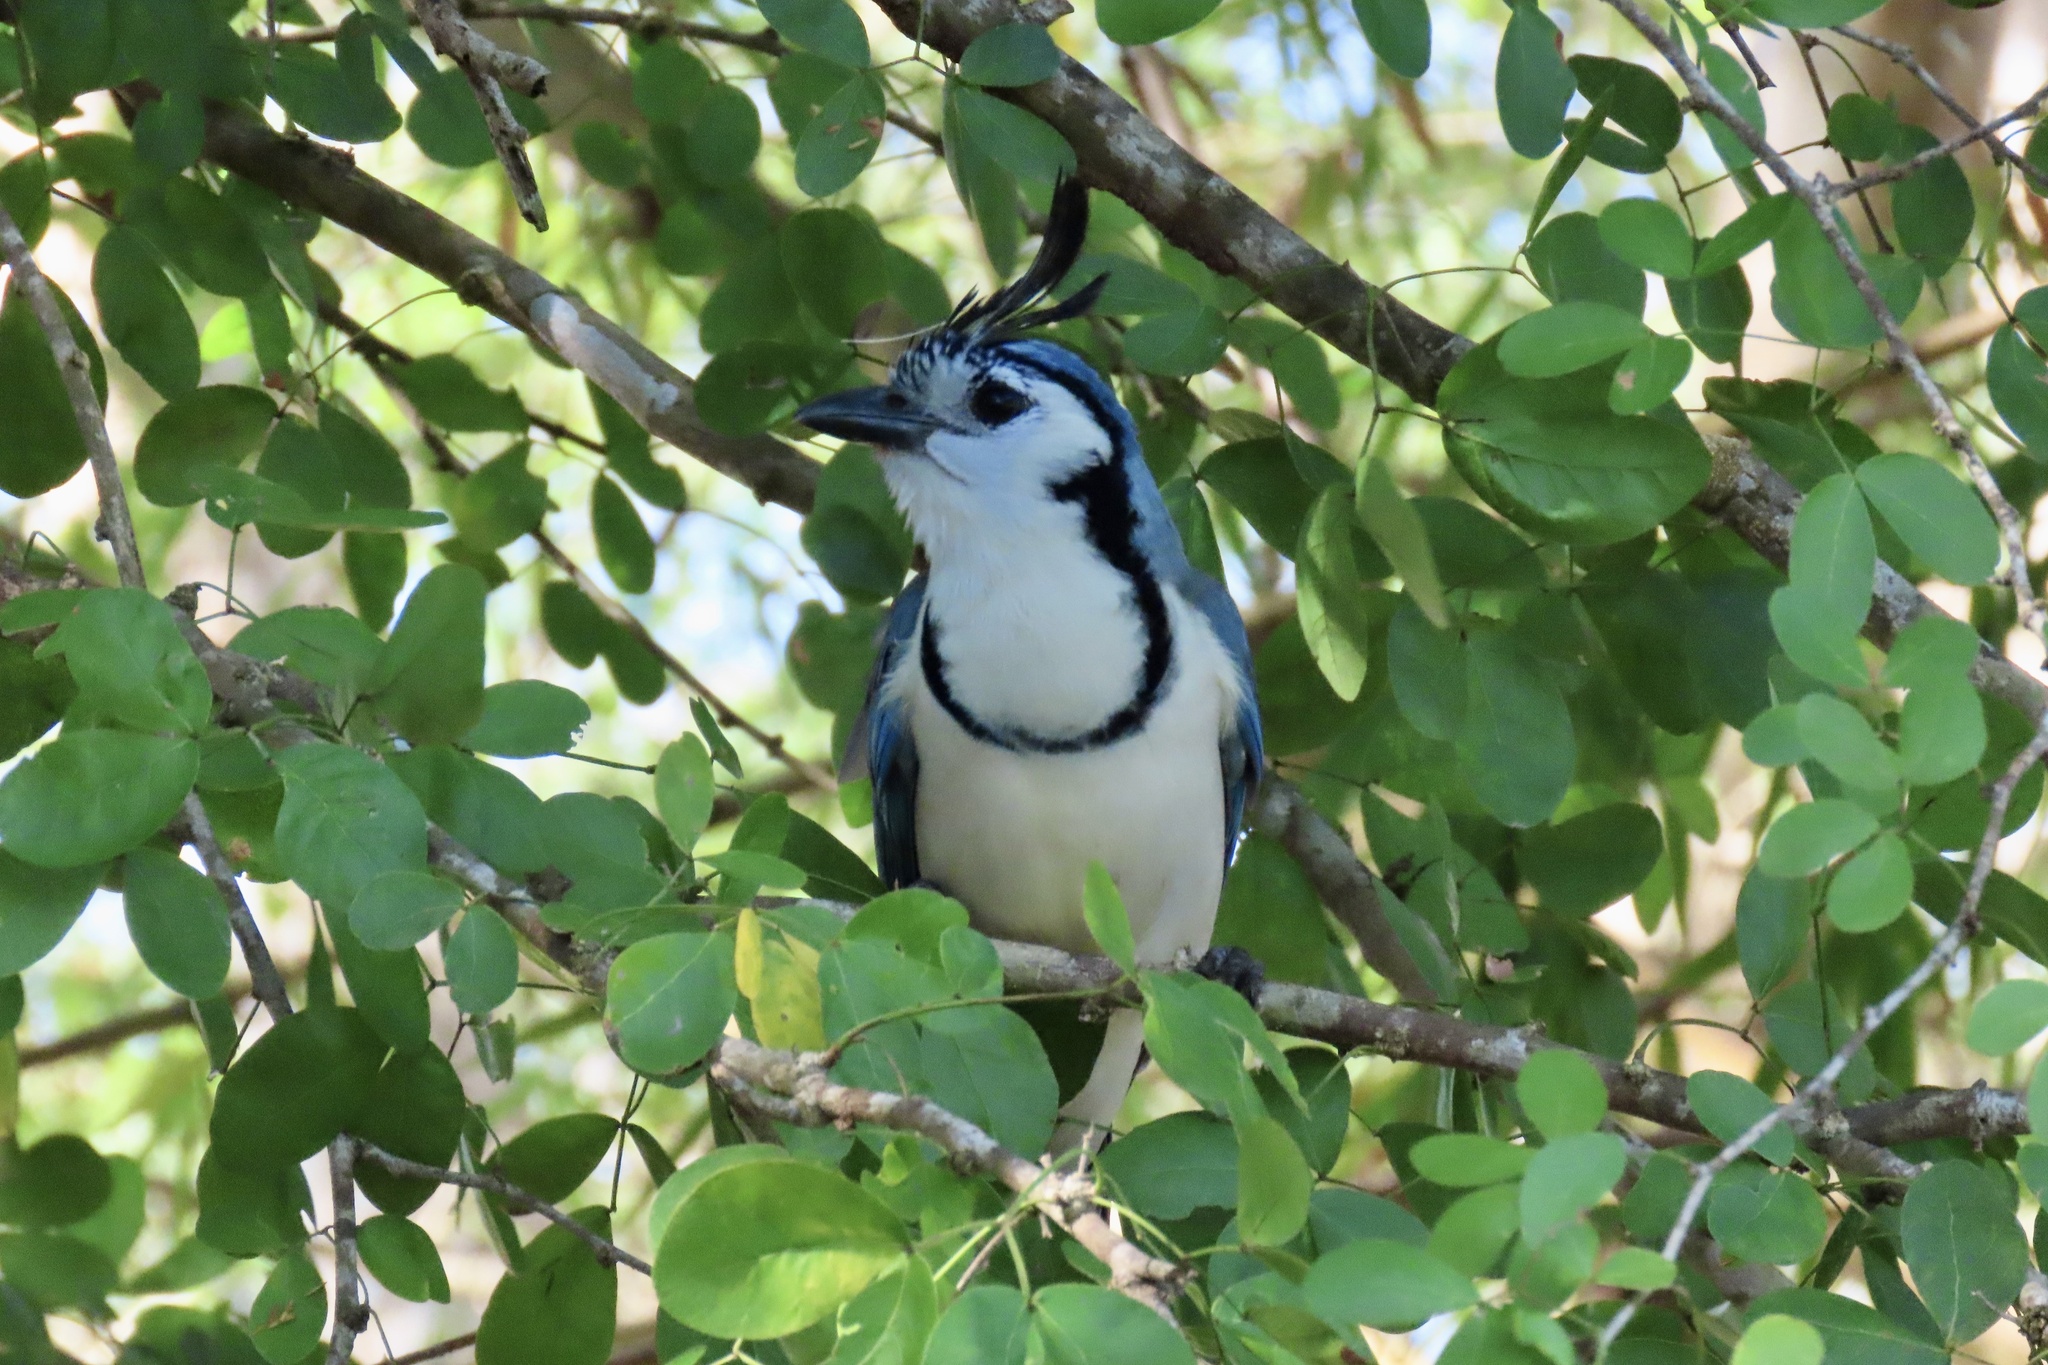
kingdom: Animalia
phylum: Chordata
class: Aves
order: Passeriformes
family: Corvidae
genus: Calocitta
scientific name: Calocitta formosa
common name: White-throated magpie-jay
